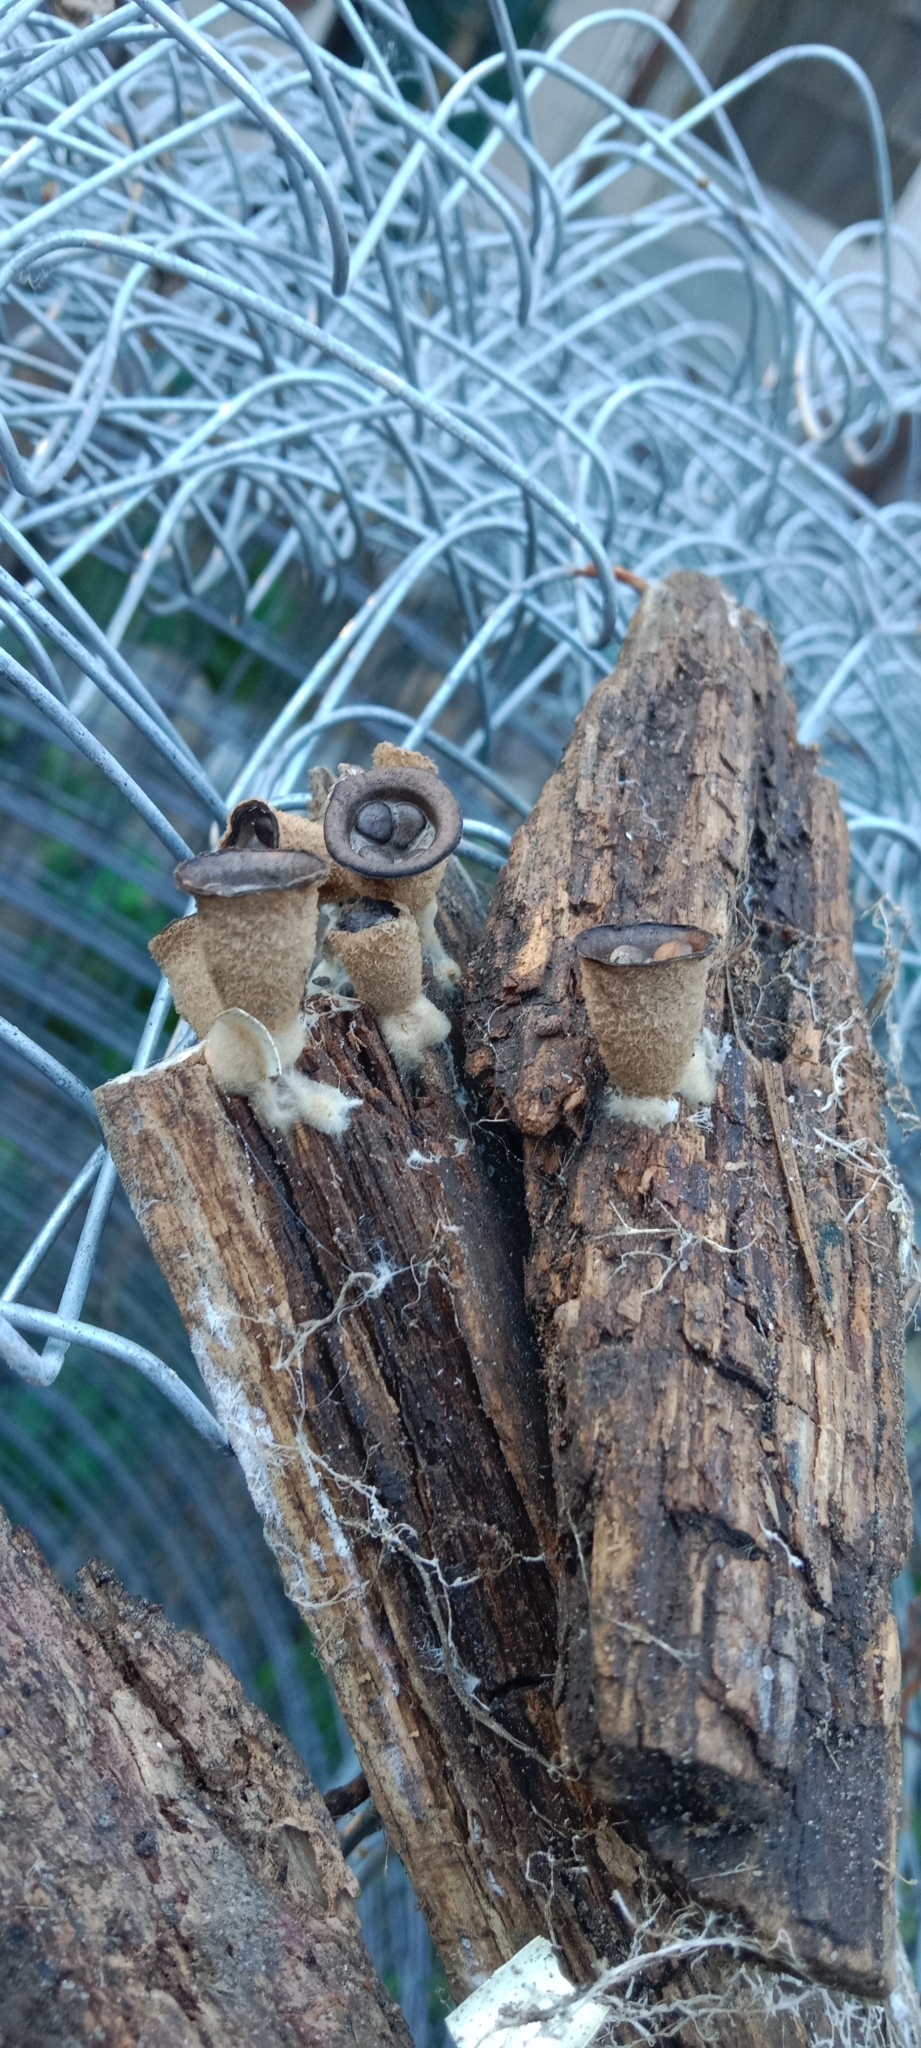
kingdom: Fungi
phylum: Basidiomycota
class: Agaricomycetes
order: Agaricales
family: Agaricaceae
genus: Cyathus
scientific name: Cyathus olla
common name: Field bird's nest
